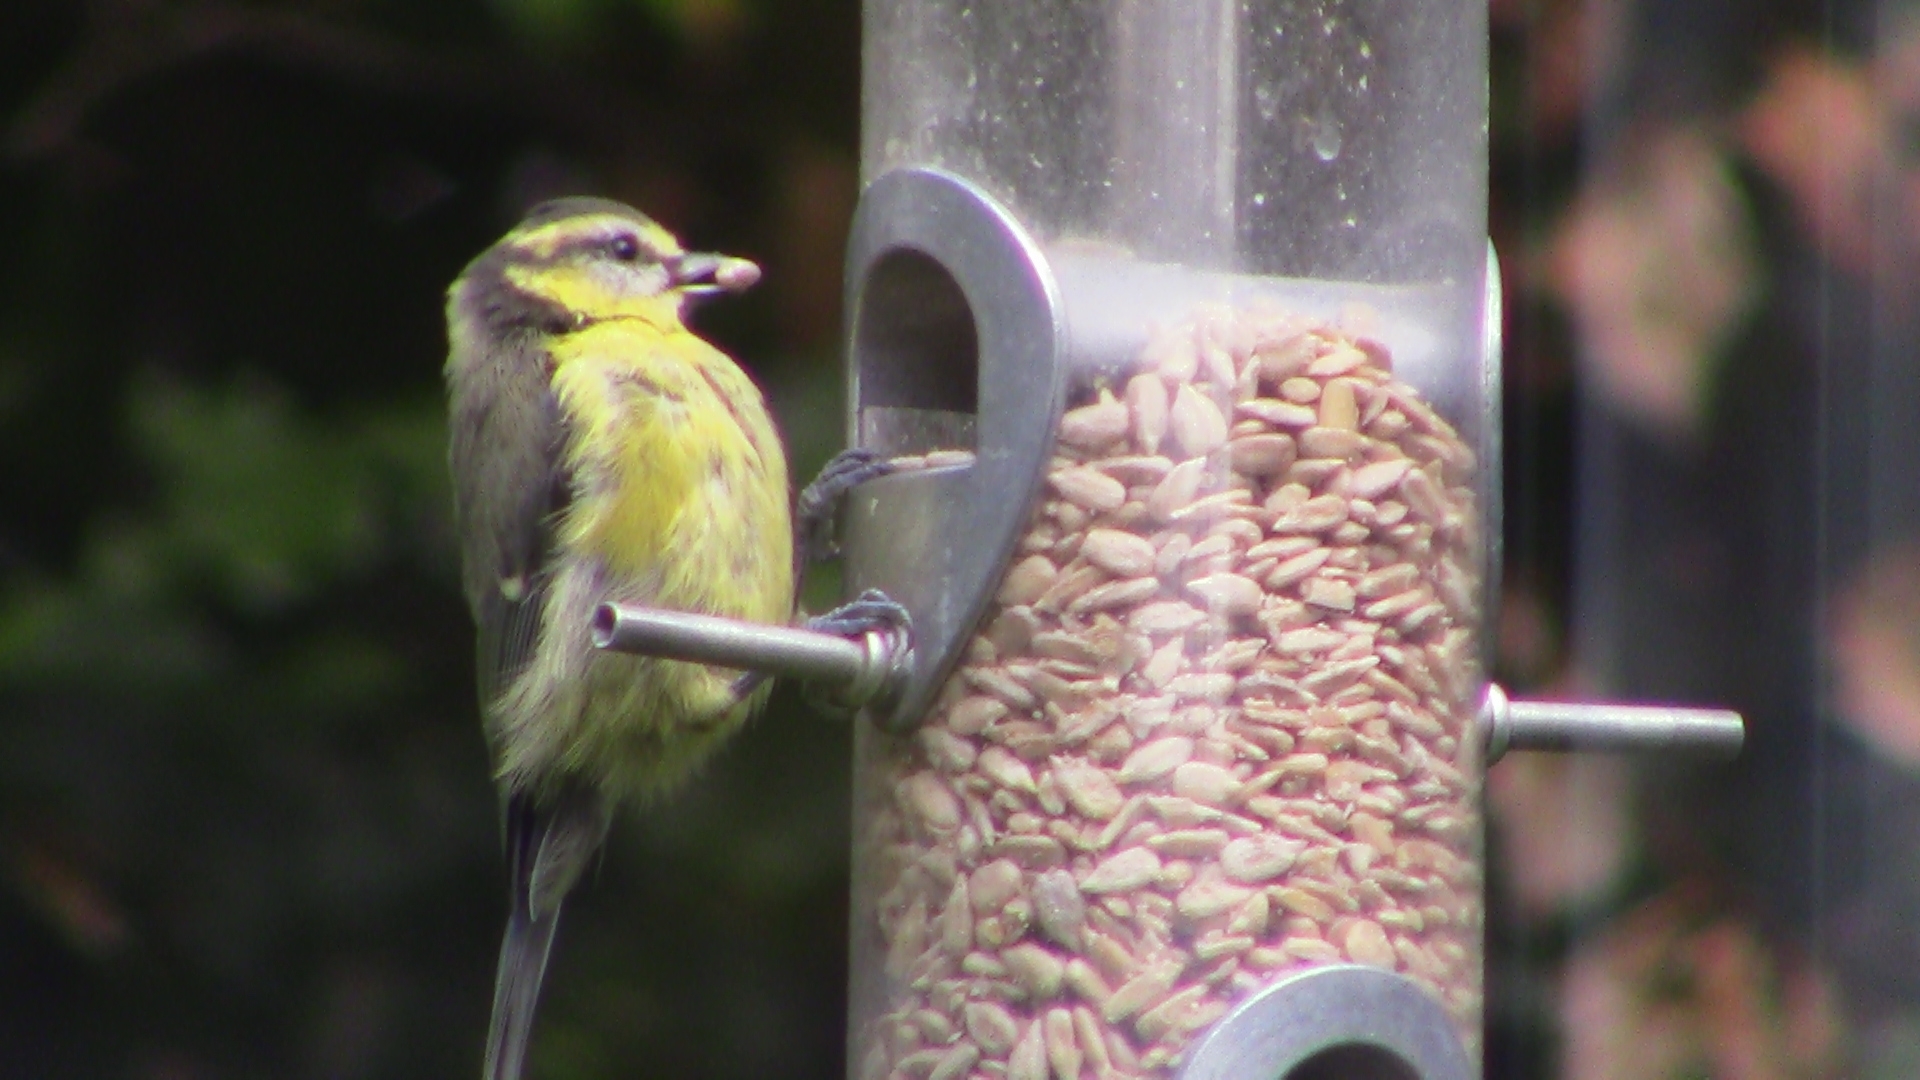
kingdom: Animalia
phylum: Chordata
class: Aves
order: Passeriformes
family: Paridae
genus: Cyanistes
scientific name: Cyanistes caeruleus
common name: Eurasian blue tit
